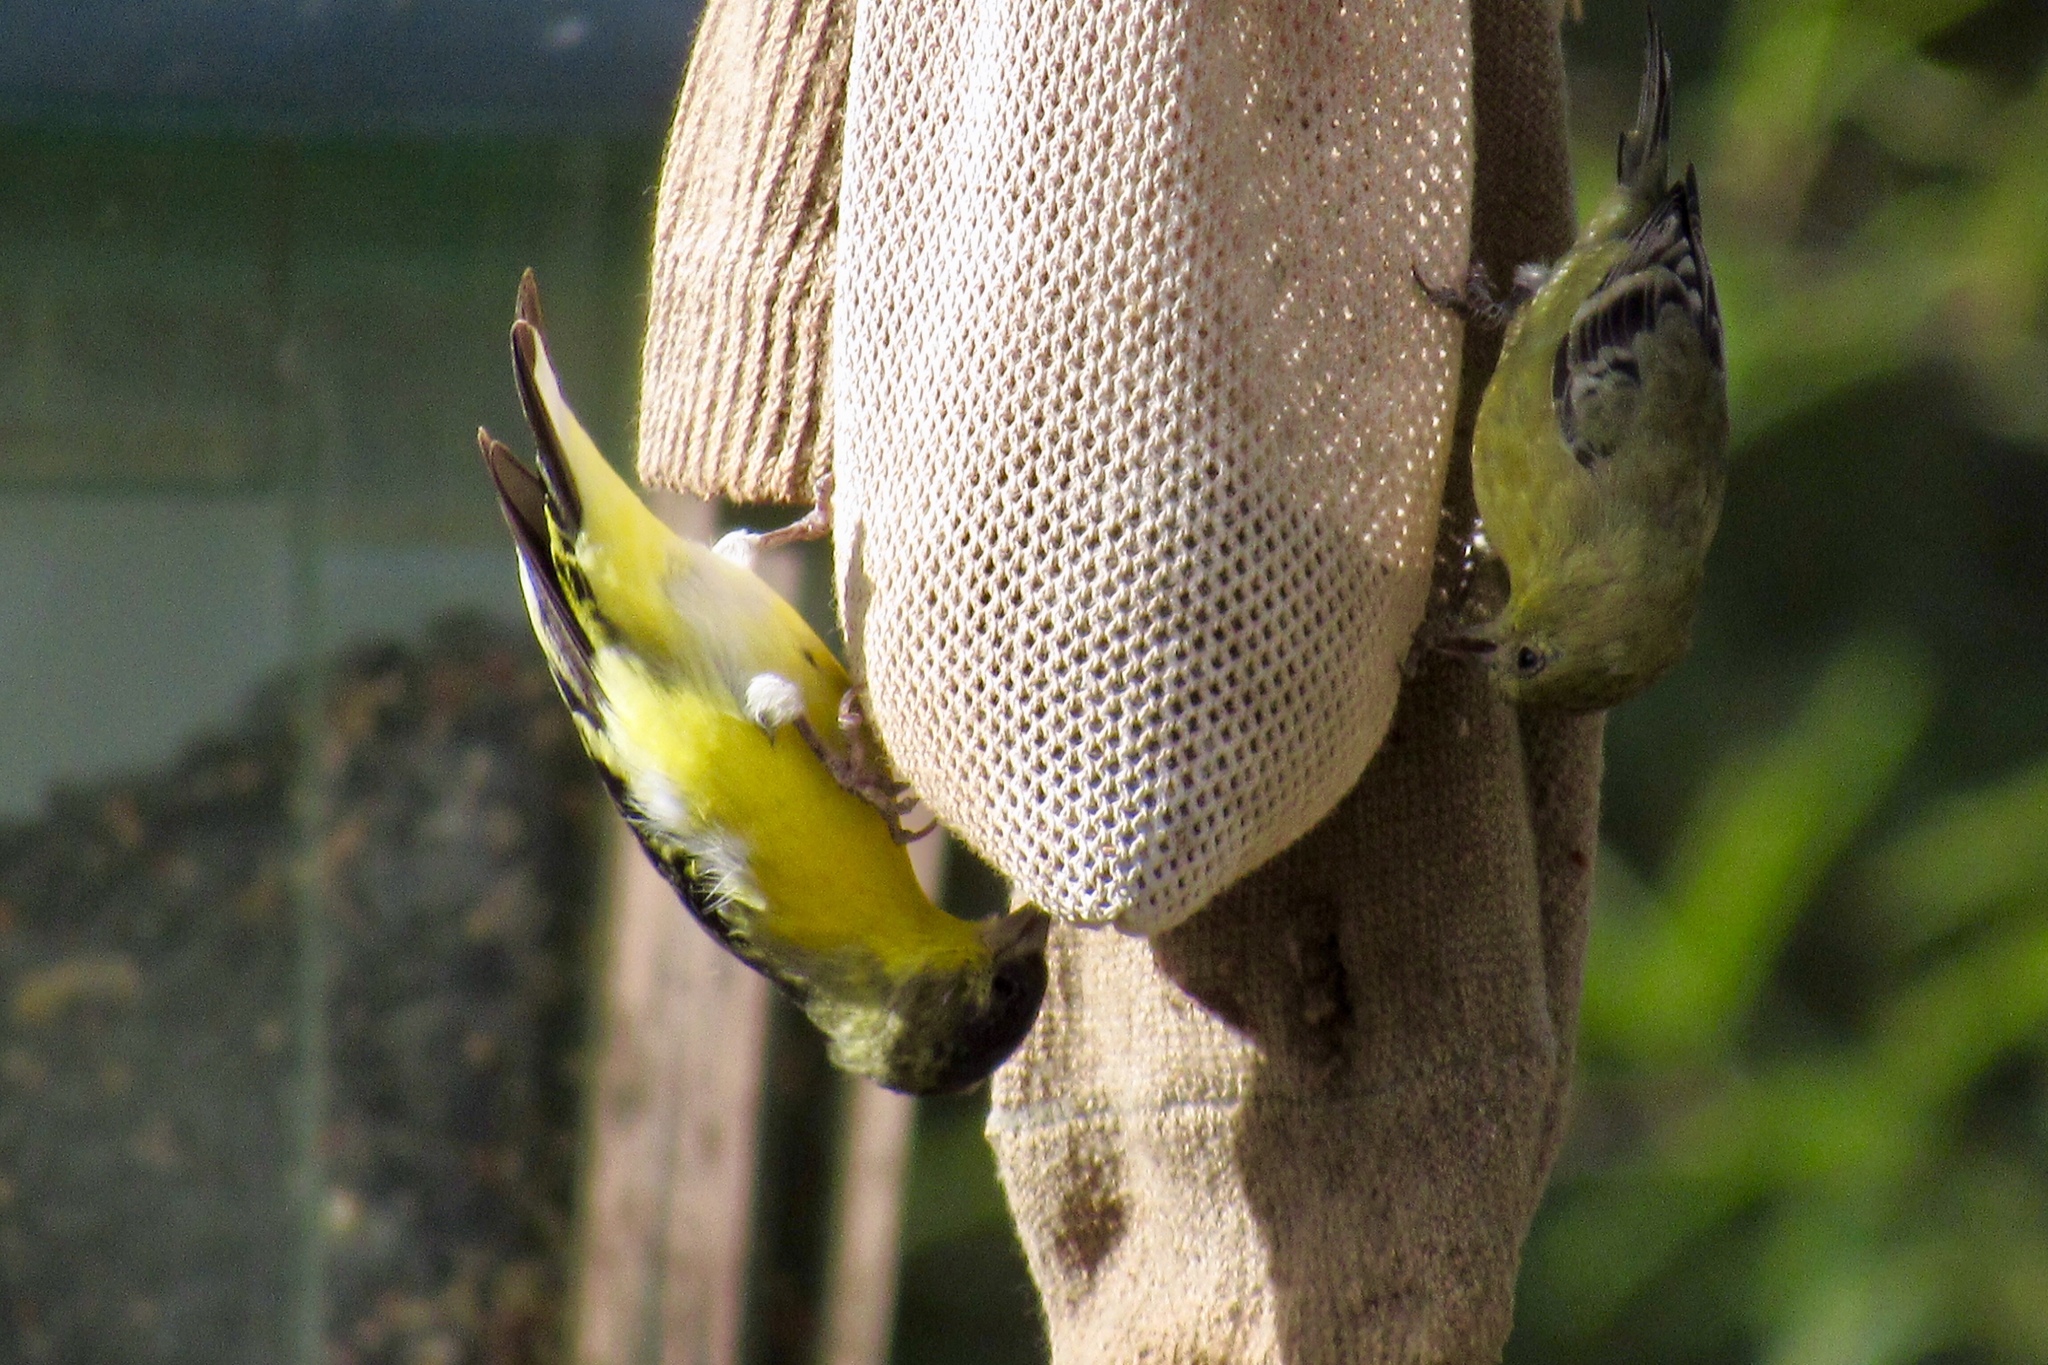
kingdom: Animalia
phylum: Chordata
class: Aves
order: Passeriformes
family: Fringillidae
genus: Spinus
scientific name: Spinus psaltria
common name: Lesser goldfinch
